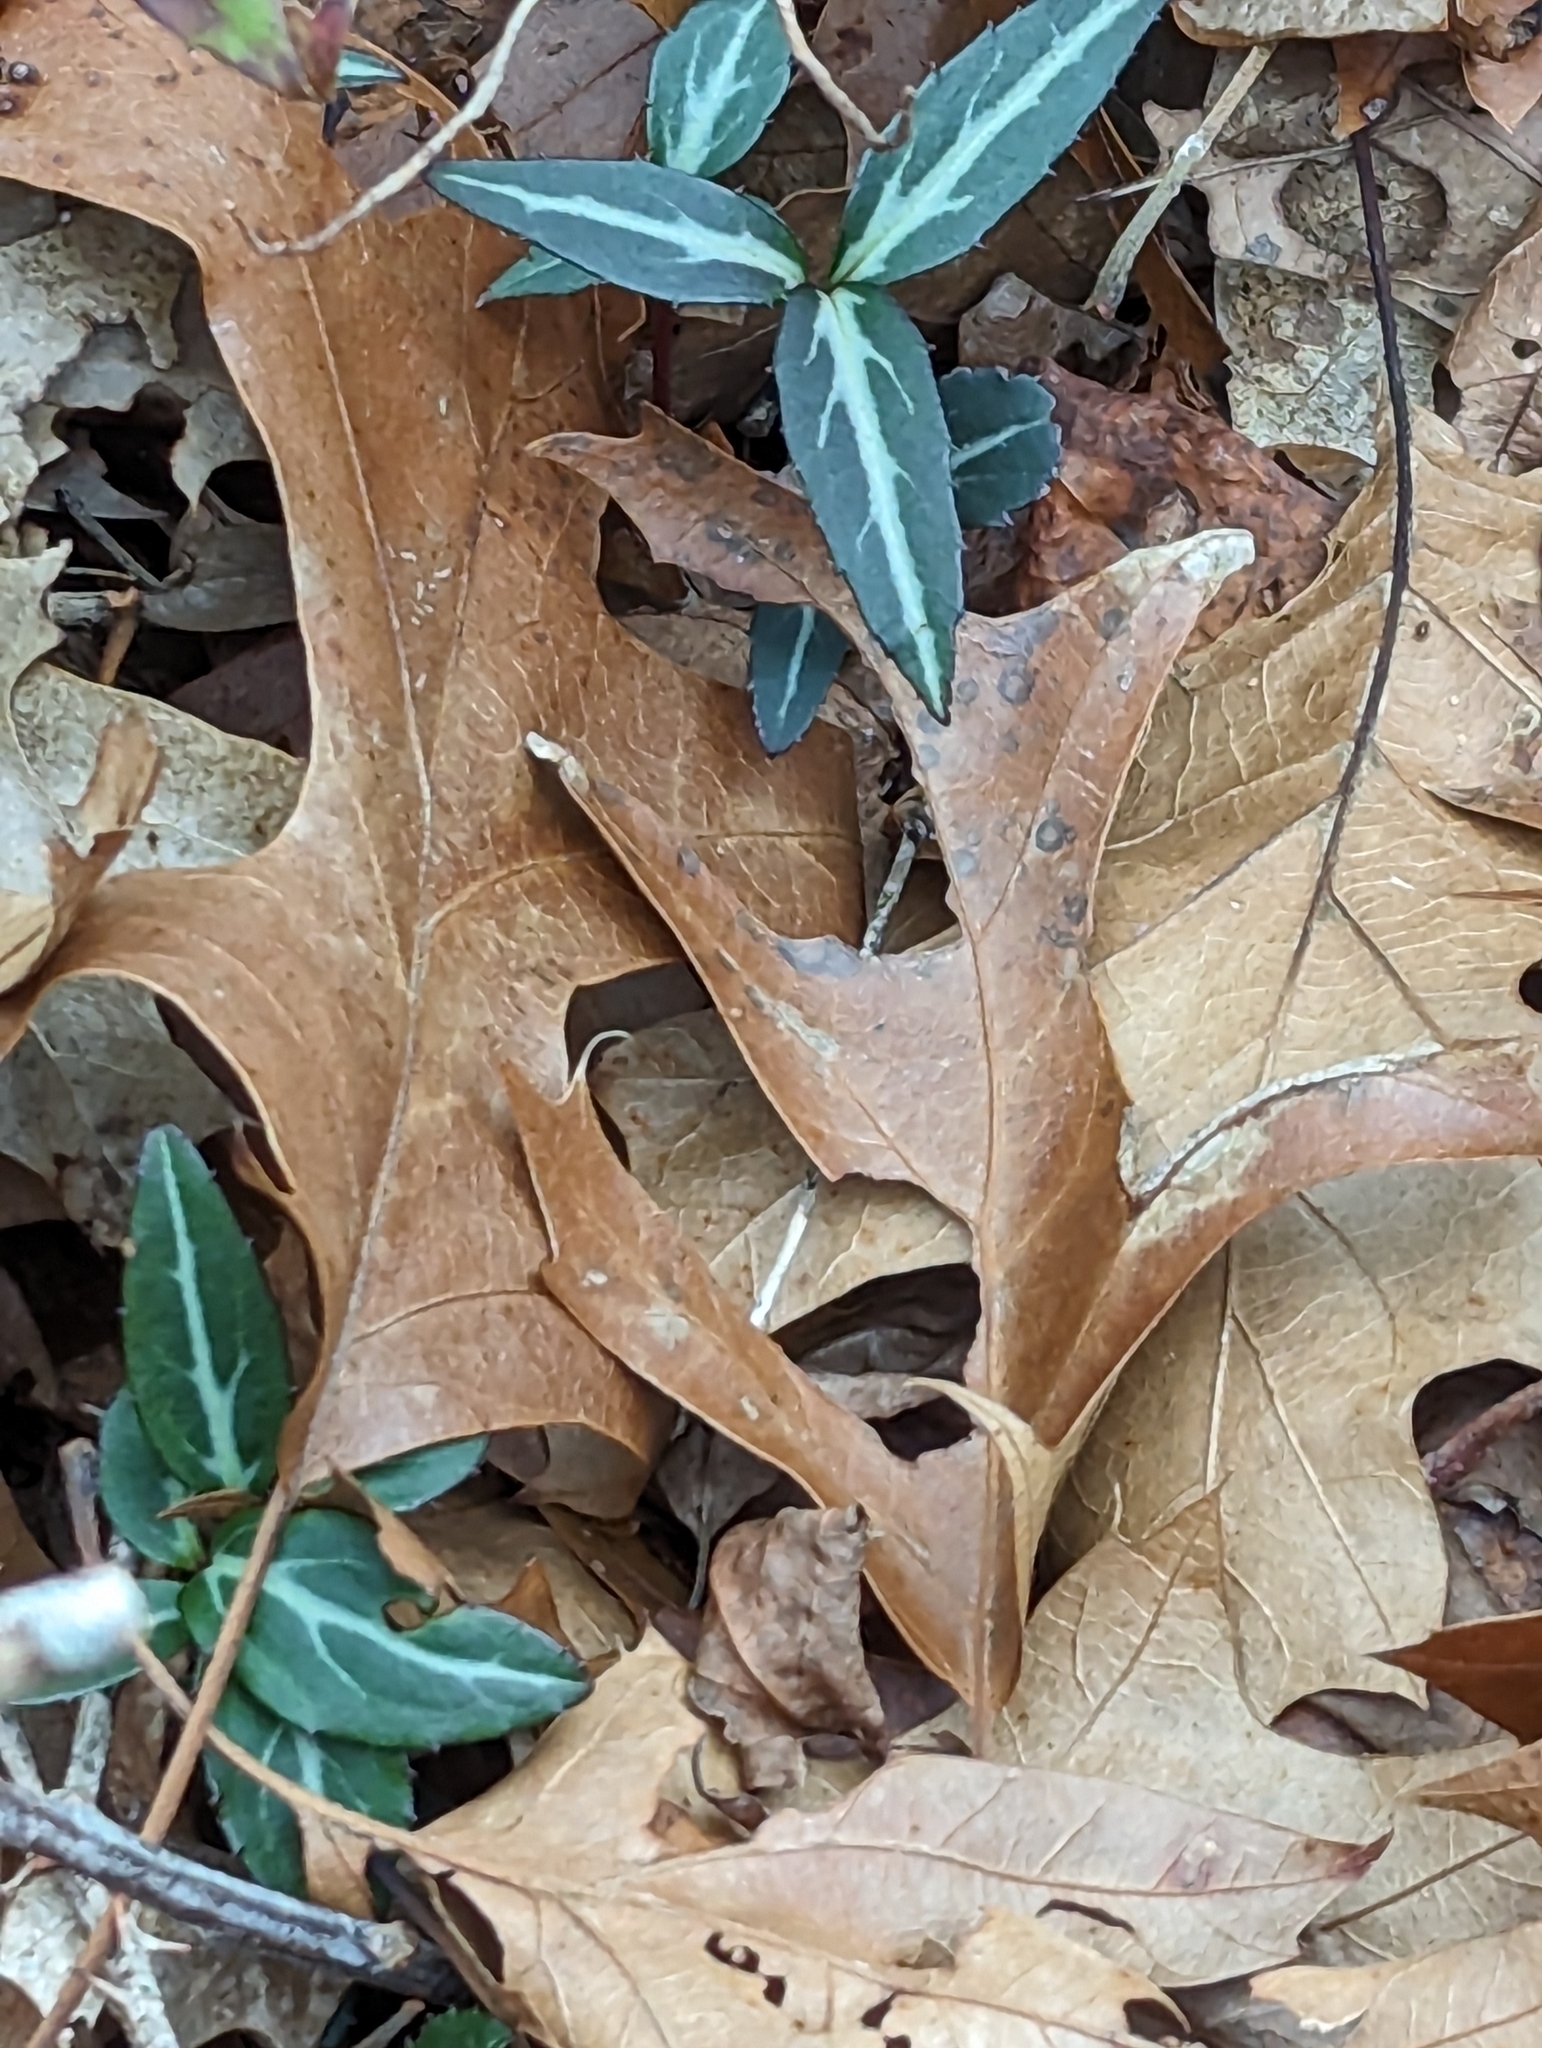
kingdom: Plantae
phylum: Tracheophyta
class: Magnoliopsida
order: Ericales
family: Ericaceae
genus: Chimaphila
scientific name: Chimaphila maculata
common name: Spotted pipsissewa
